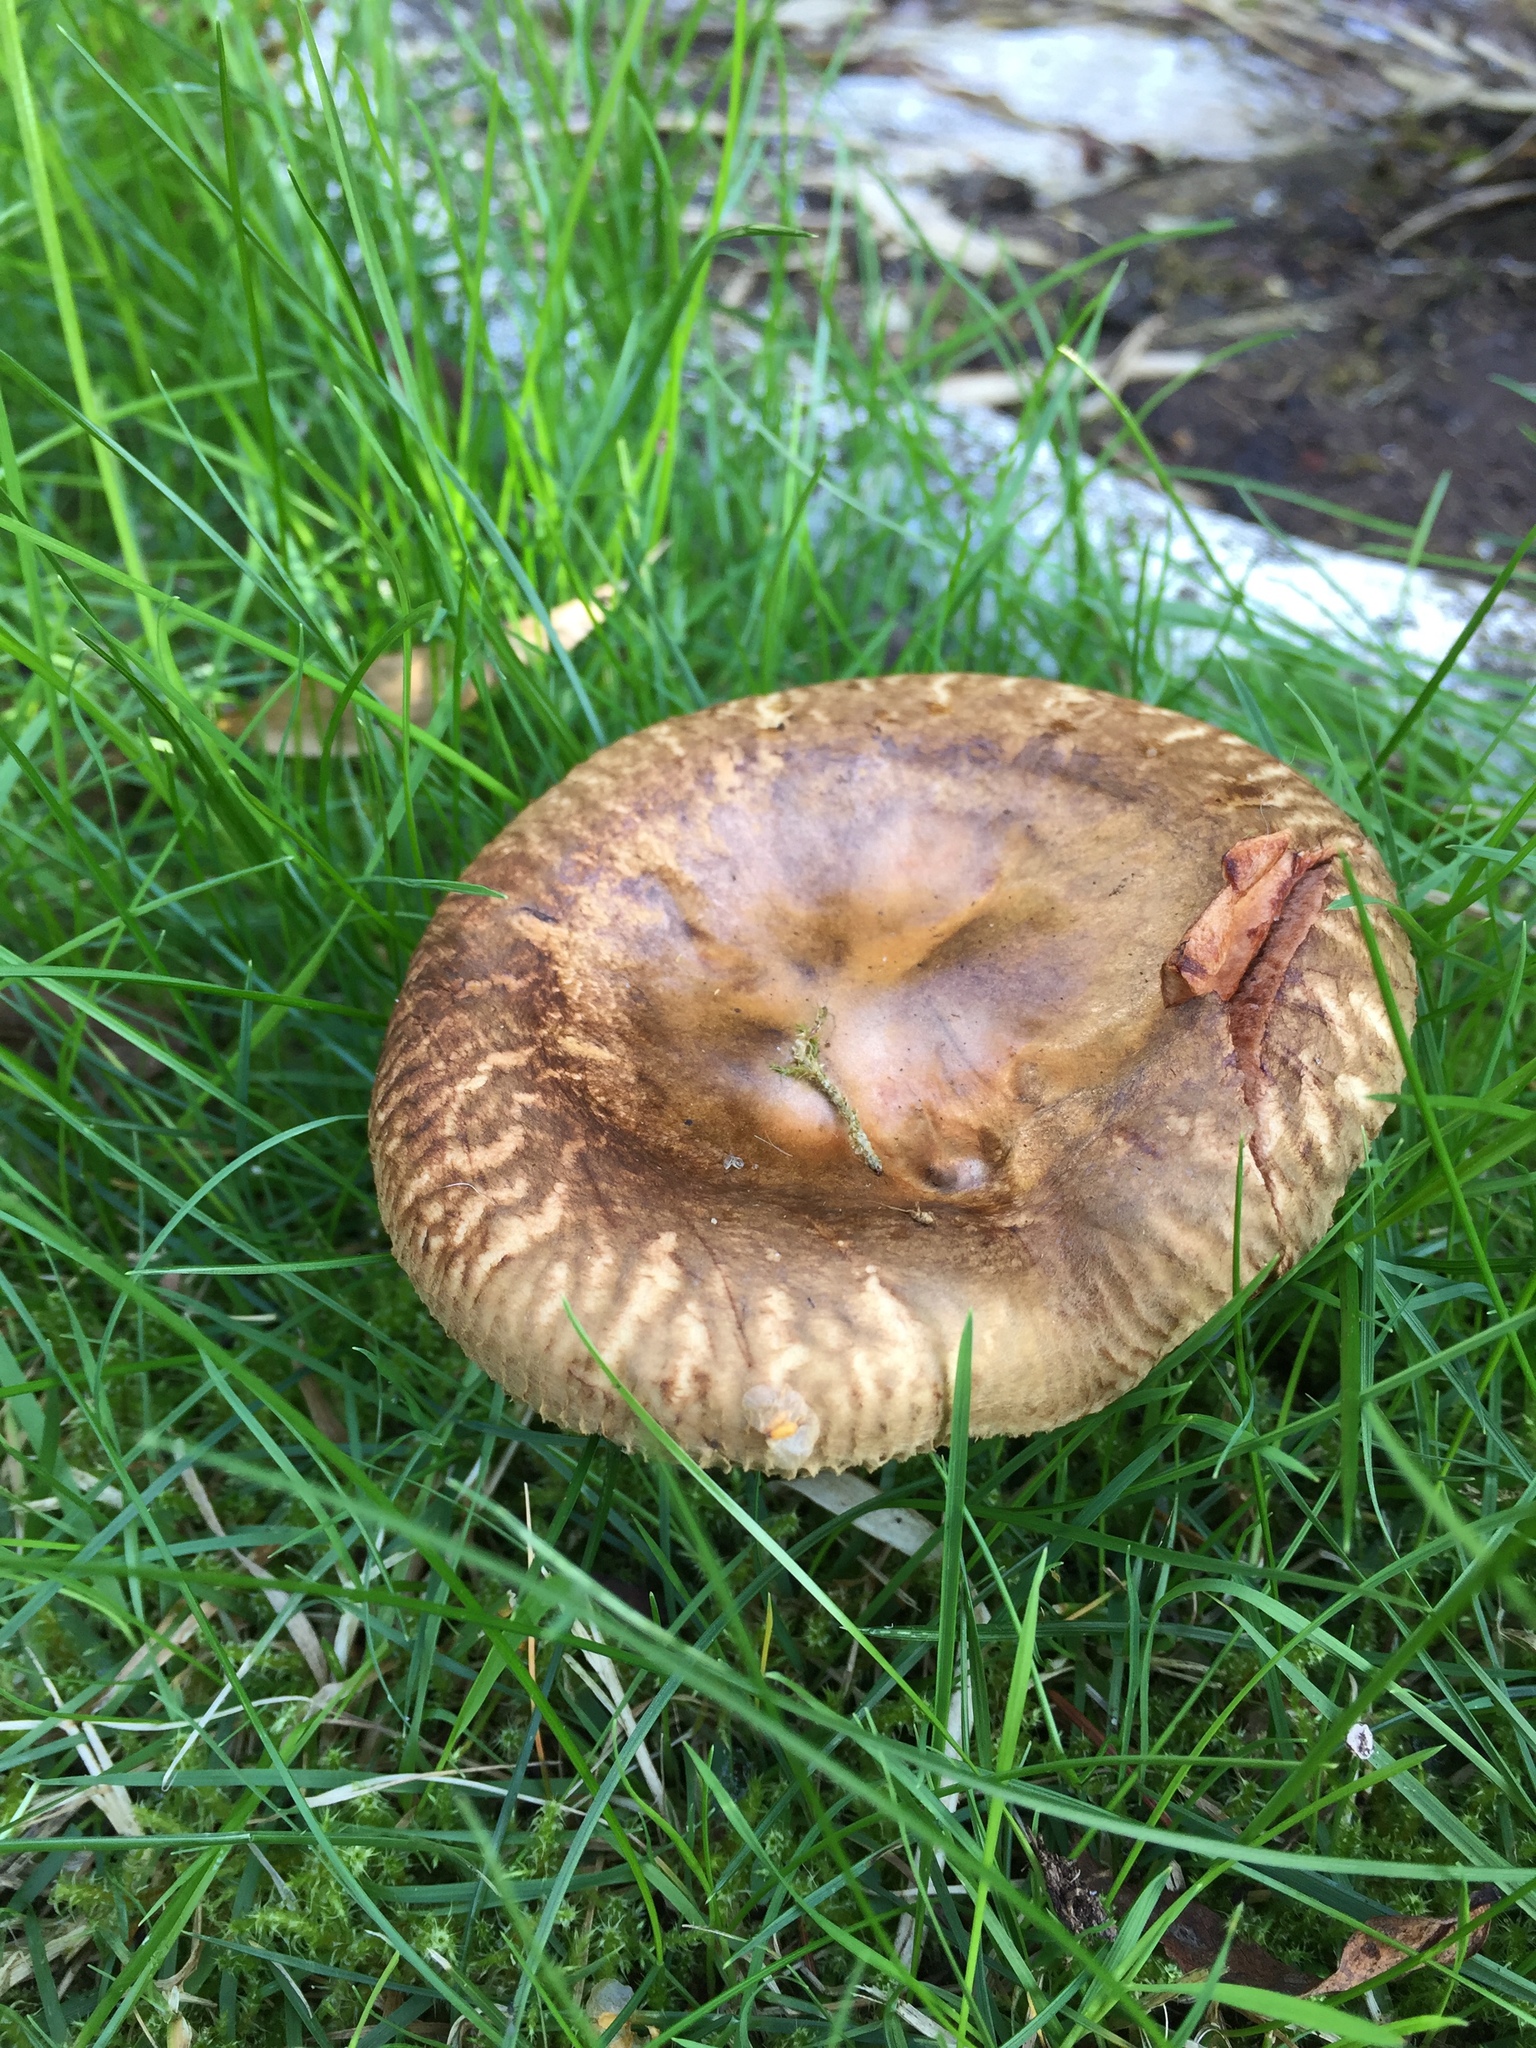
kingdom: Fungi
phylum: Basidiomycota
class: Agaricomycetes
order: Boletales
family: Paxillaceae
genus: Paxillus
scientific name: Paxillus involutus
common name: Brown roll rim
